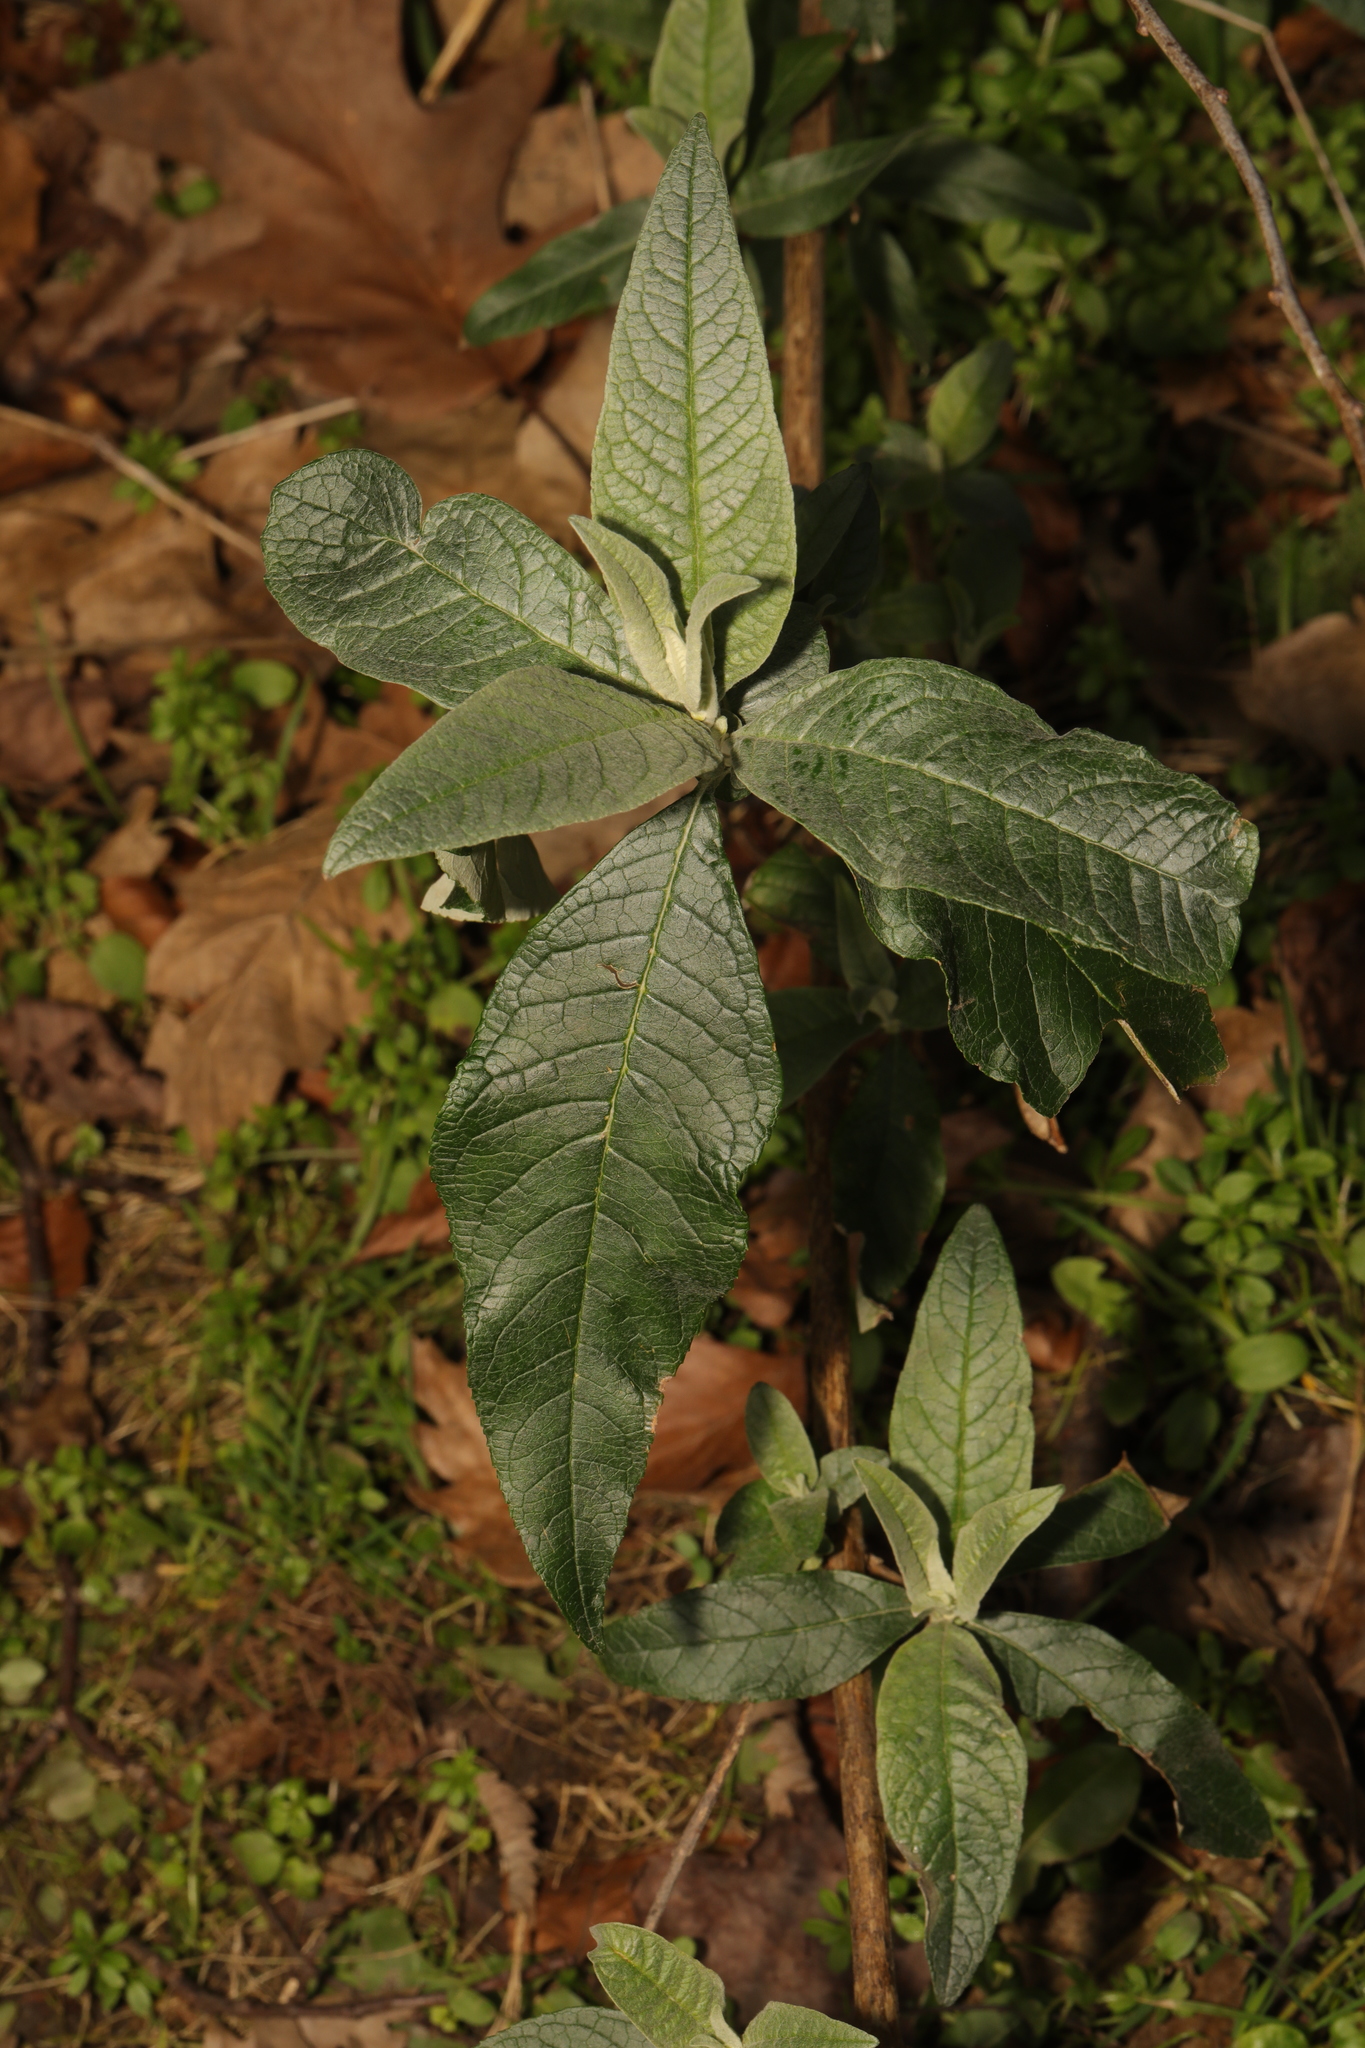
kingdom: Plantae
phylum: Tracheophyta
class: Magnoliopsida
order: Lamiales
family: Scrophulariaceae
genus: Buddleja
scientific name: Buddleja davidii
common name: Butterfly-bush
